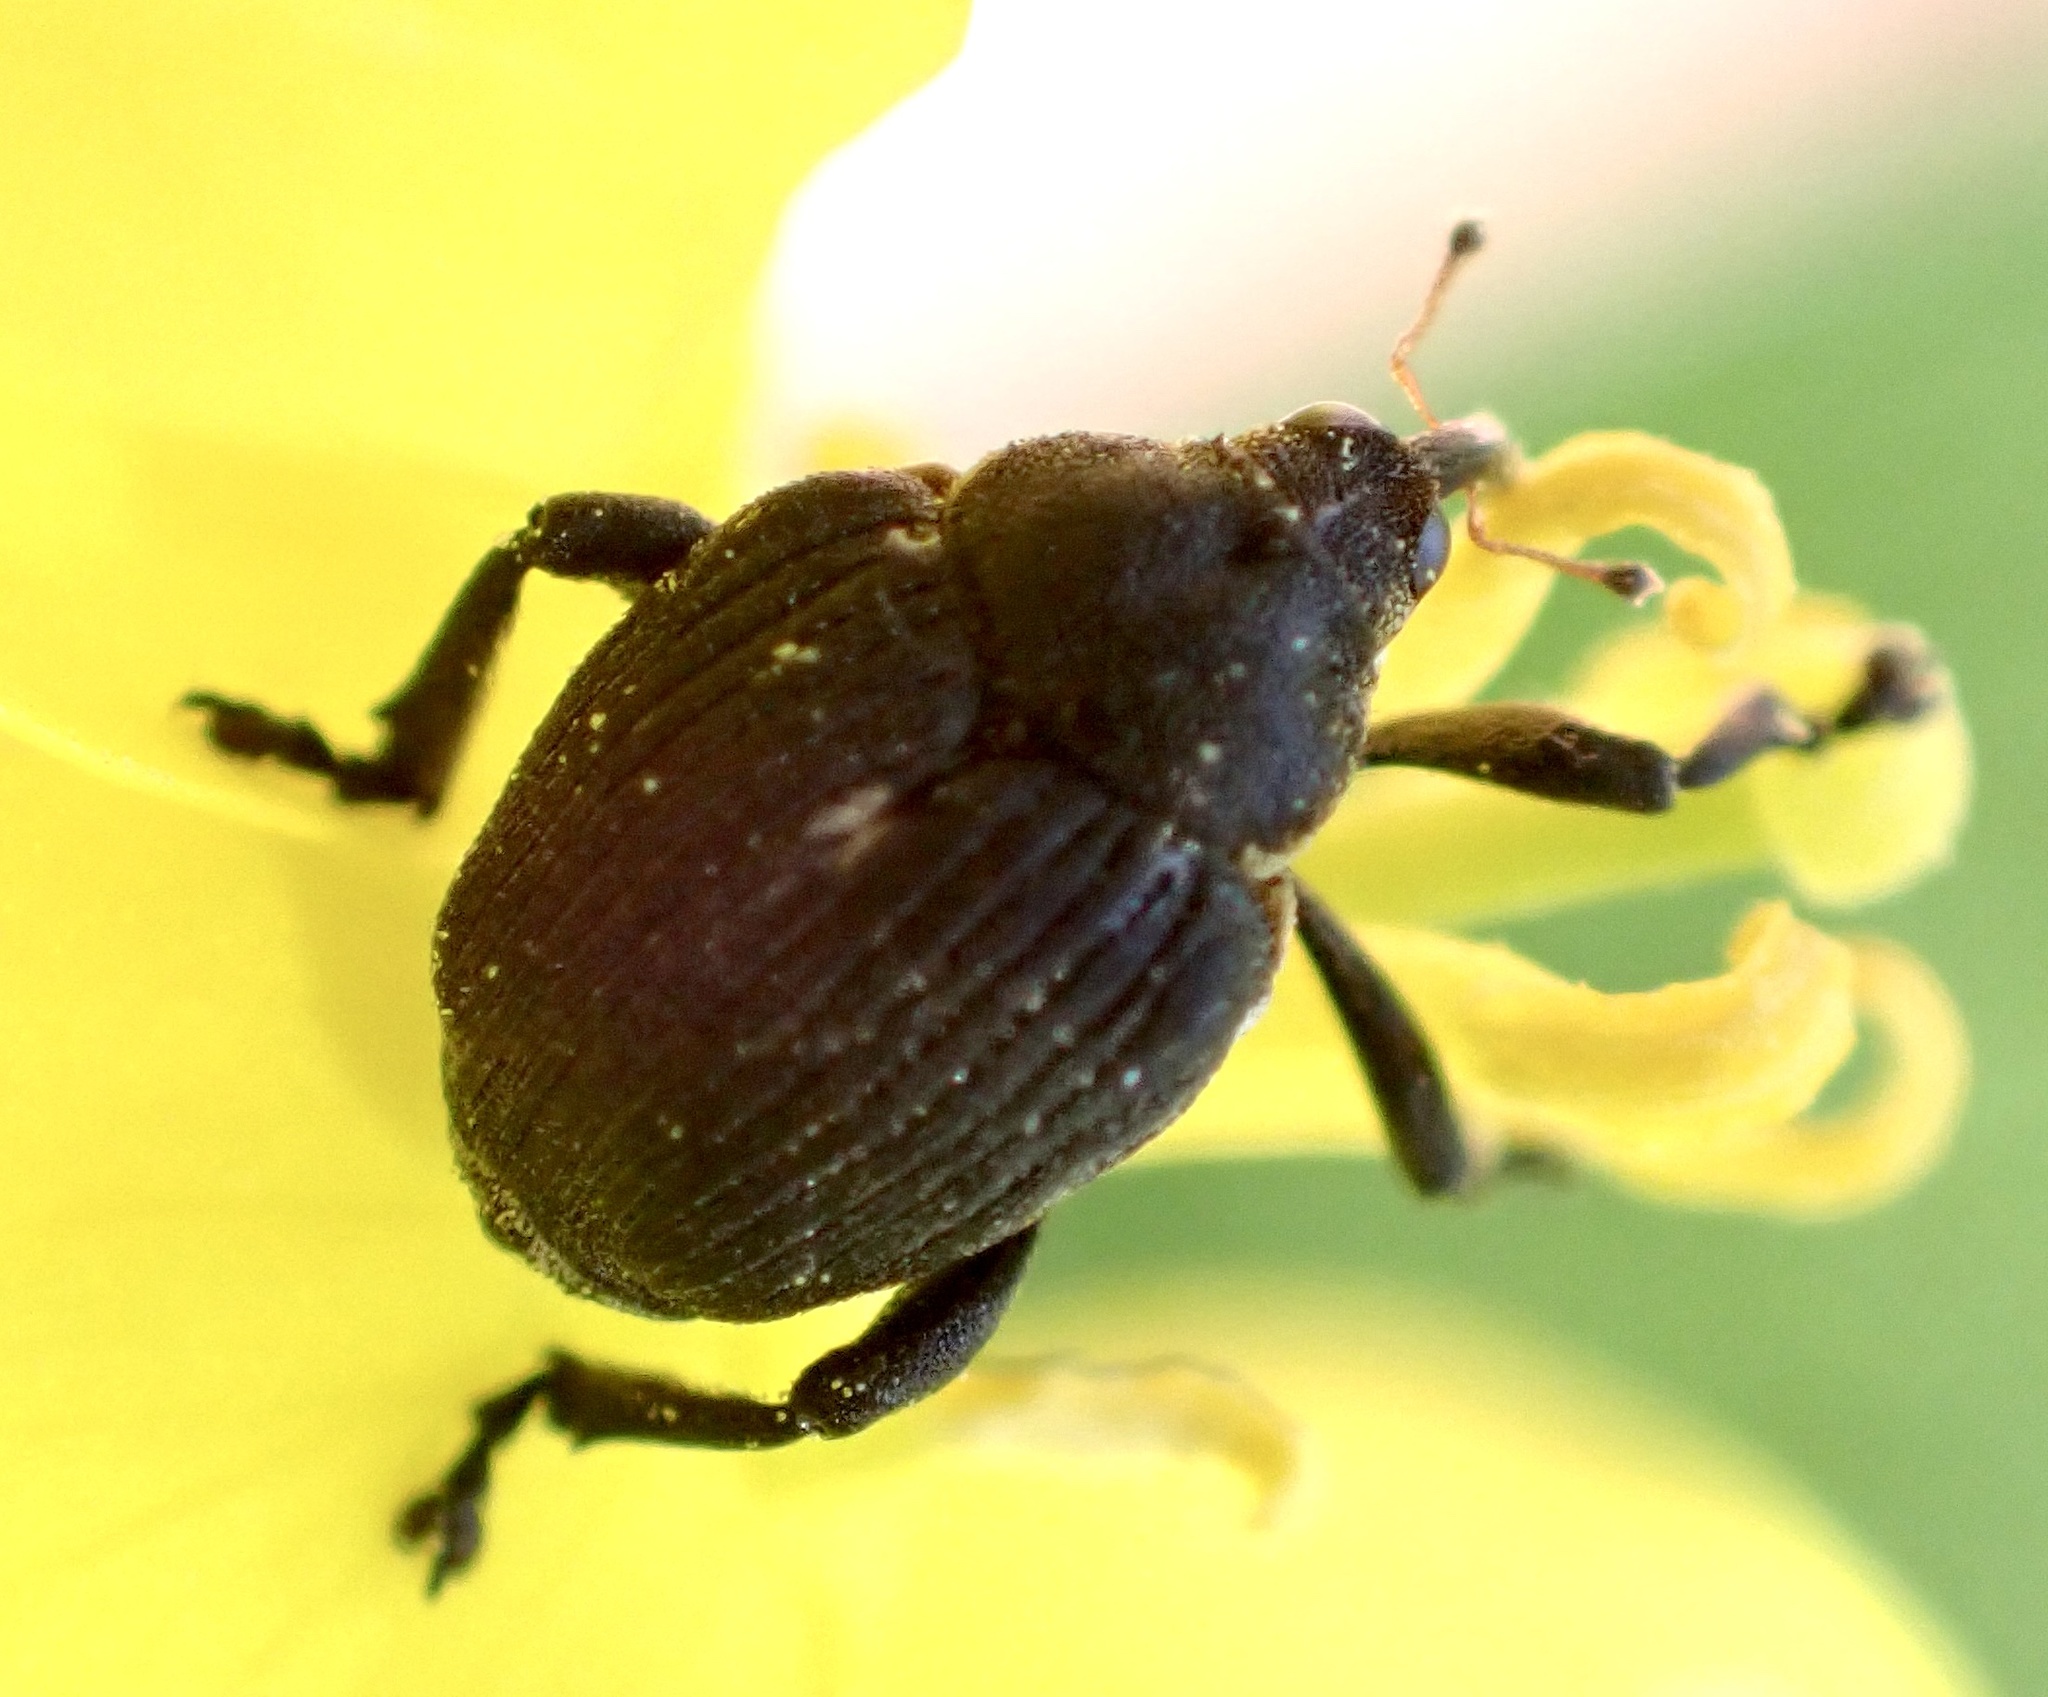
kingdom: Animalia
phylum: Arthropoda
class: Insecta
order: Coleoptera
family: Curculionidae
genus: Mononychus
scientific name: Mononychus punctumalbum
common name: Iris weevil
